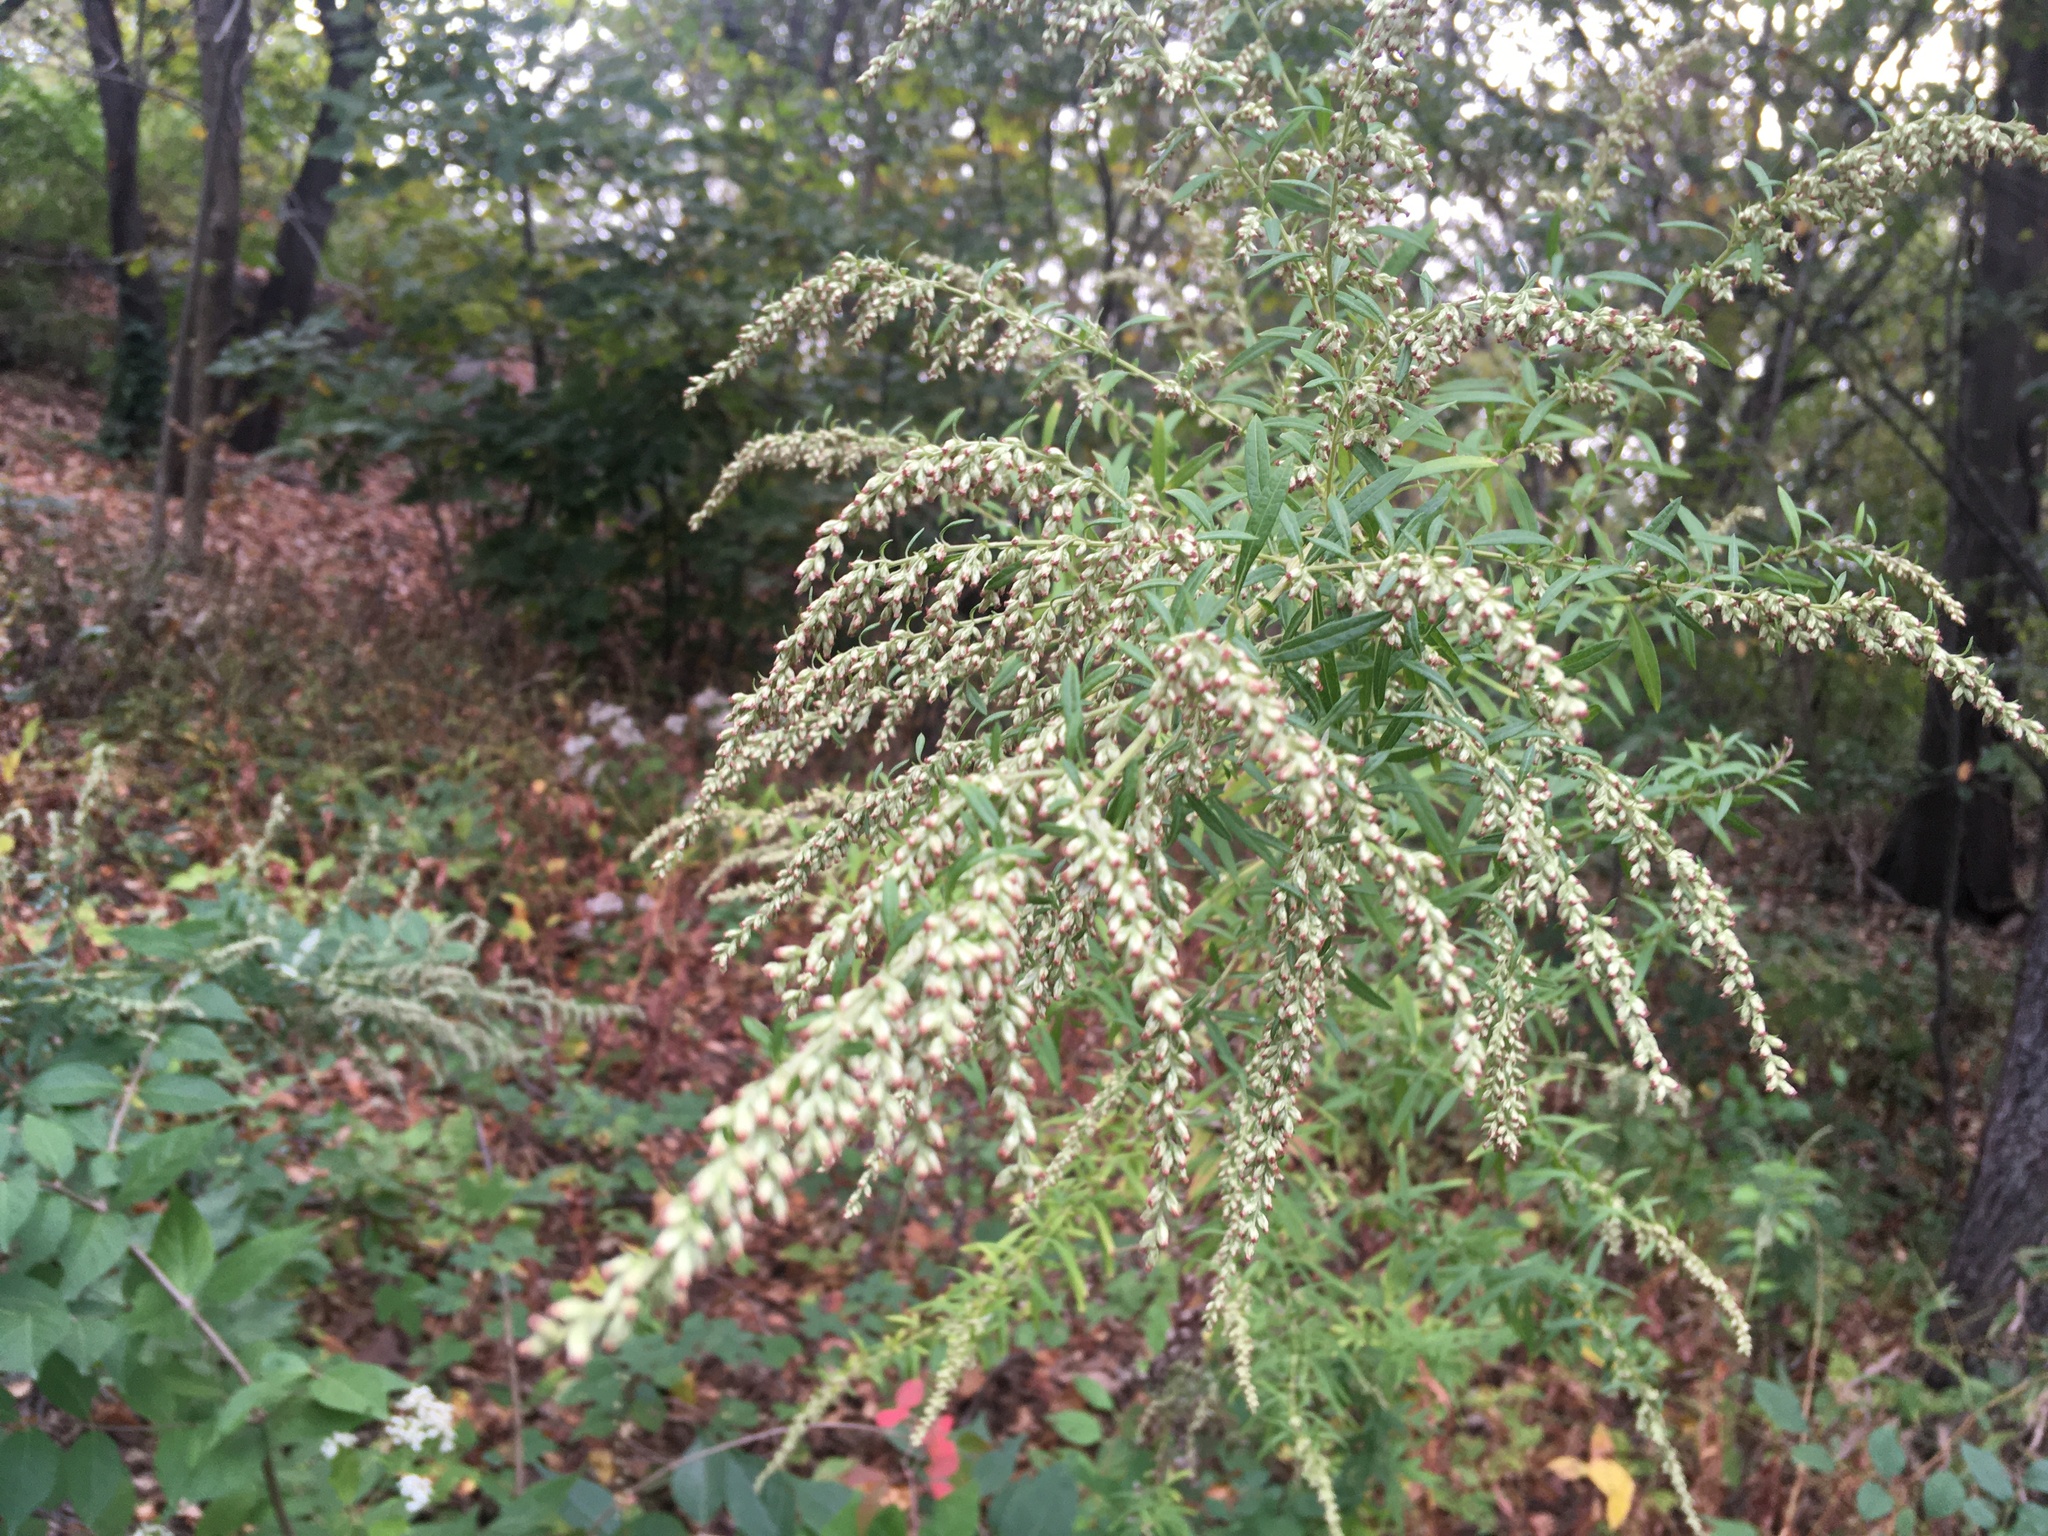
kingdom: Plantae
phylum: Tracheophyta
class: Magnoliopsida
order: Asterales
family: Asteraceae
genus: Artemisia
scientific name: Artemisia vulgaris
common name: Mugwort
